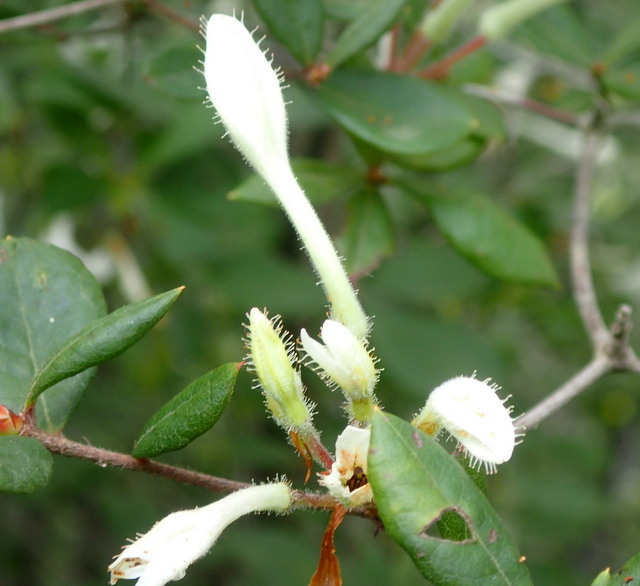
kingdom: Plantae
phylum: Tracheophyta
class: Magnoliopsida
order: Ericales
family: Ericaceae
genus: Rhododendron
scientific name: Rhododendron serrulatum
